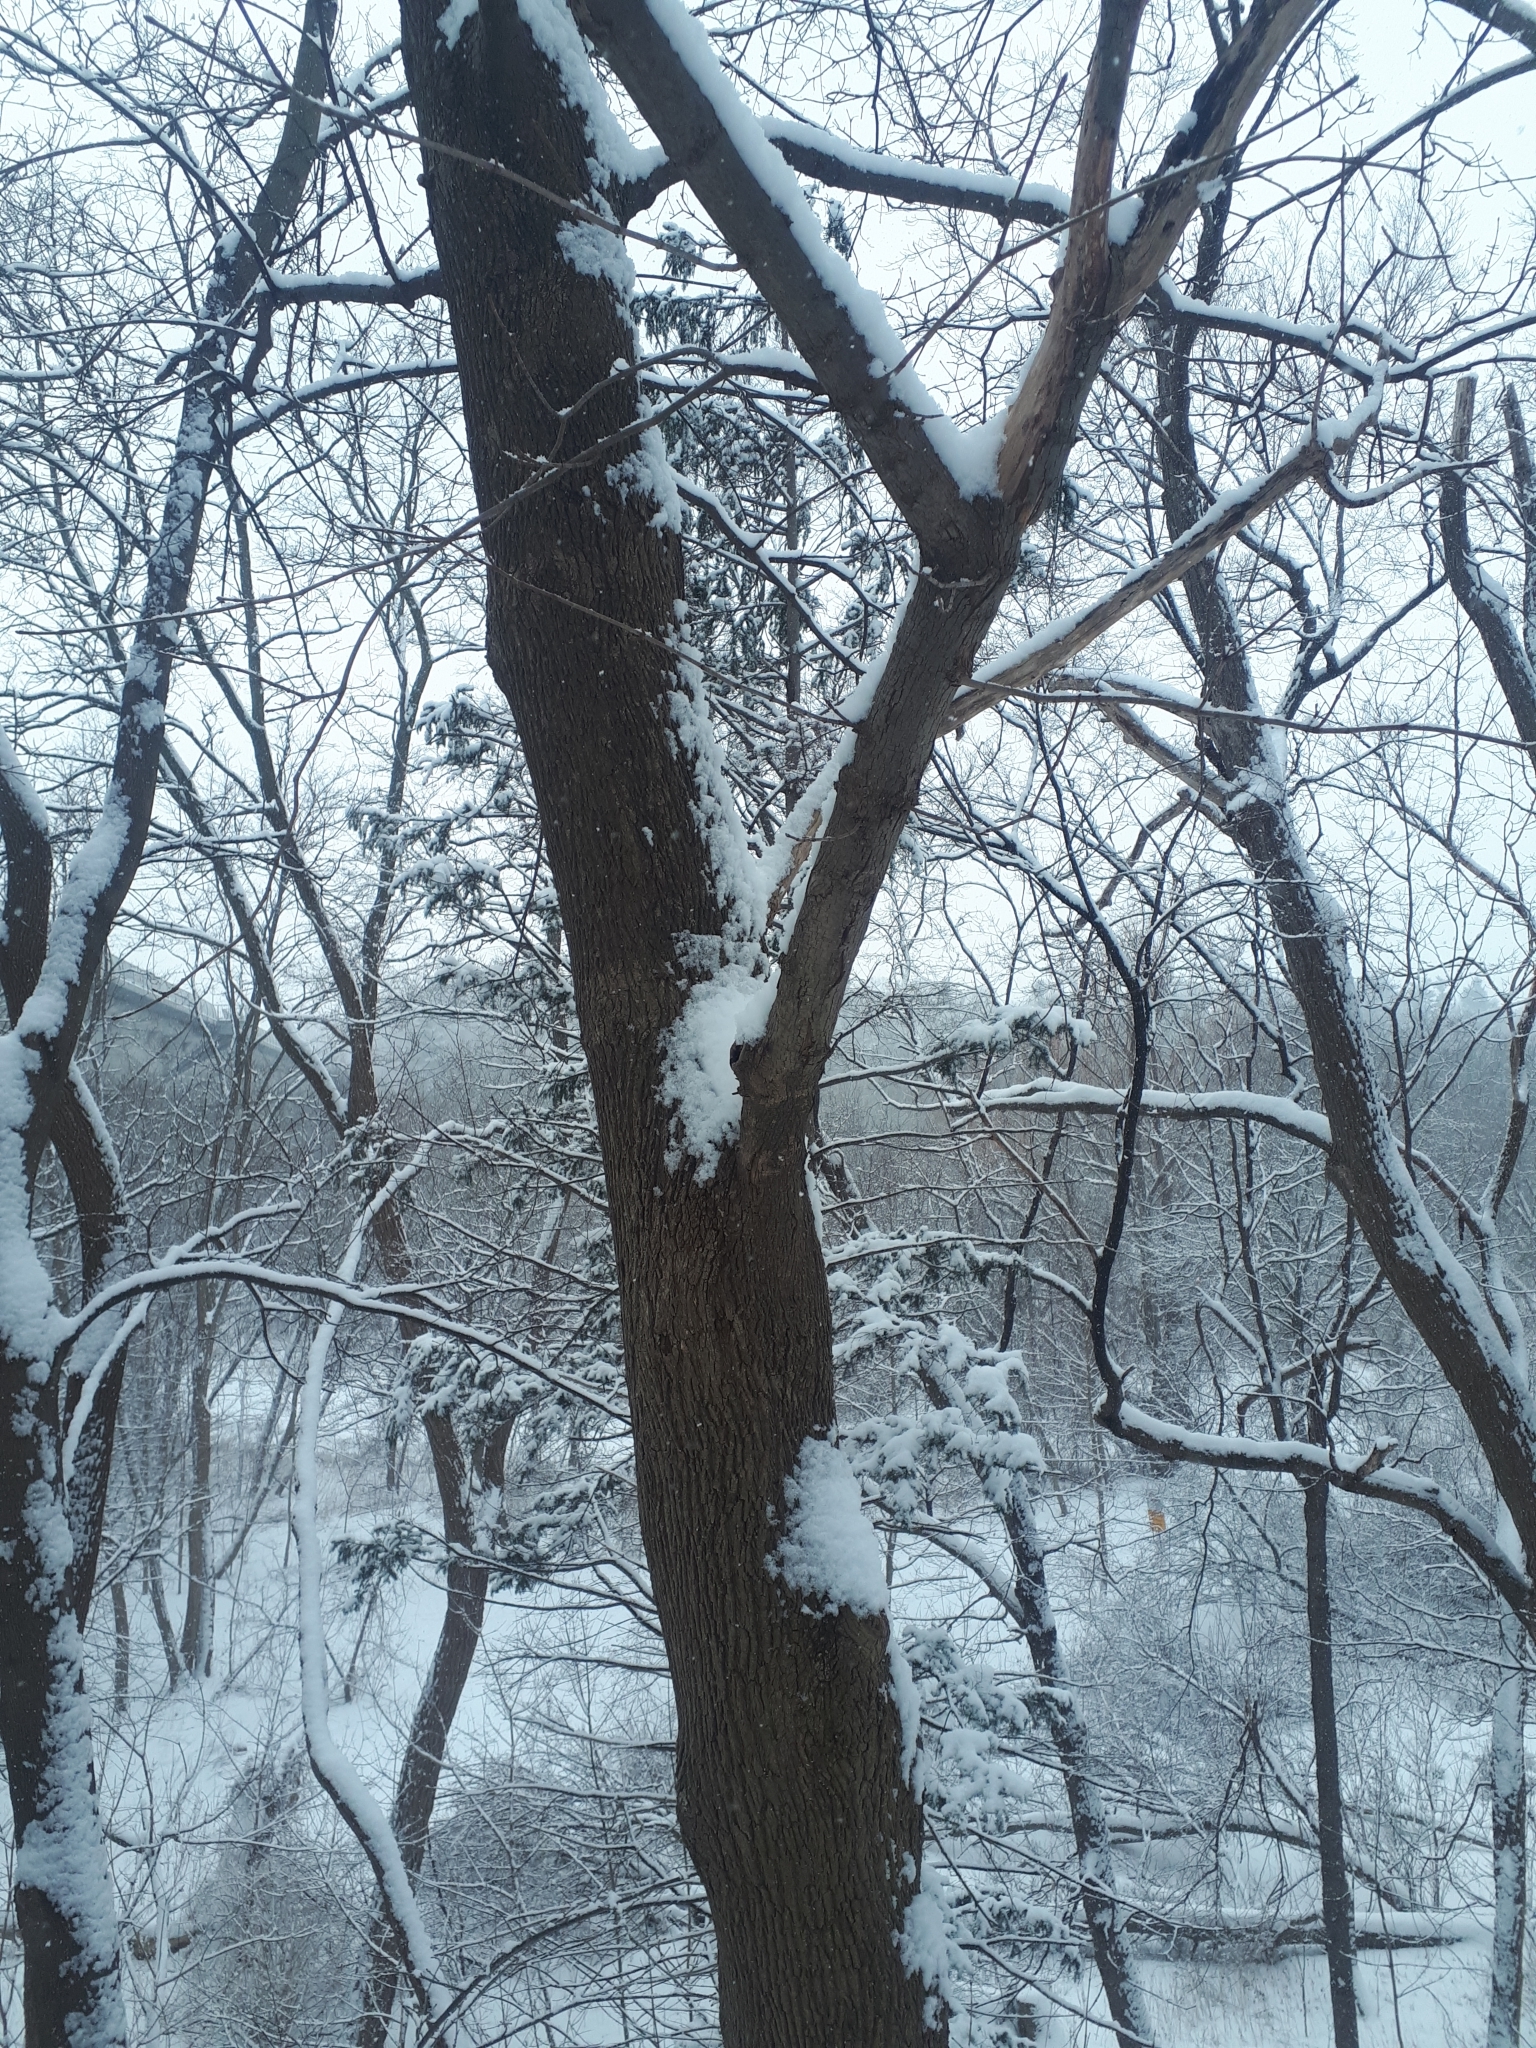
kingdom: Plantae
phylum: Tracheophyta
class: Magnoliopsida
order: Sapindales
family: Sapindaceae
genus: Acer
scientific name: Acer platanoides
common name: Norway maple
